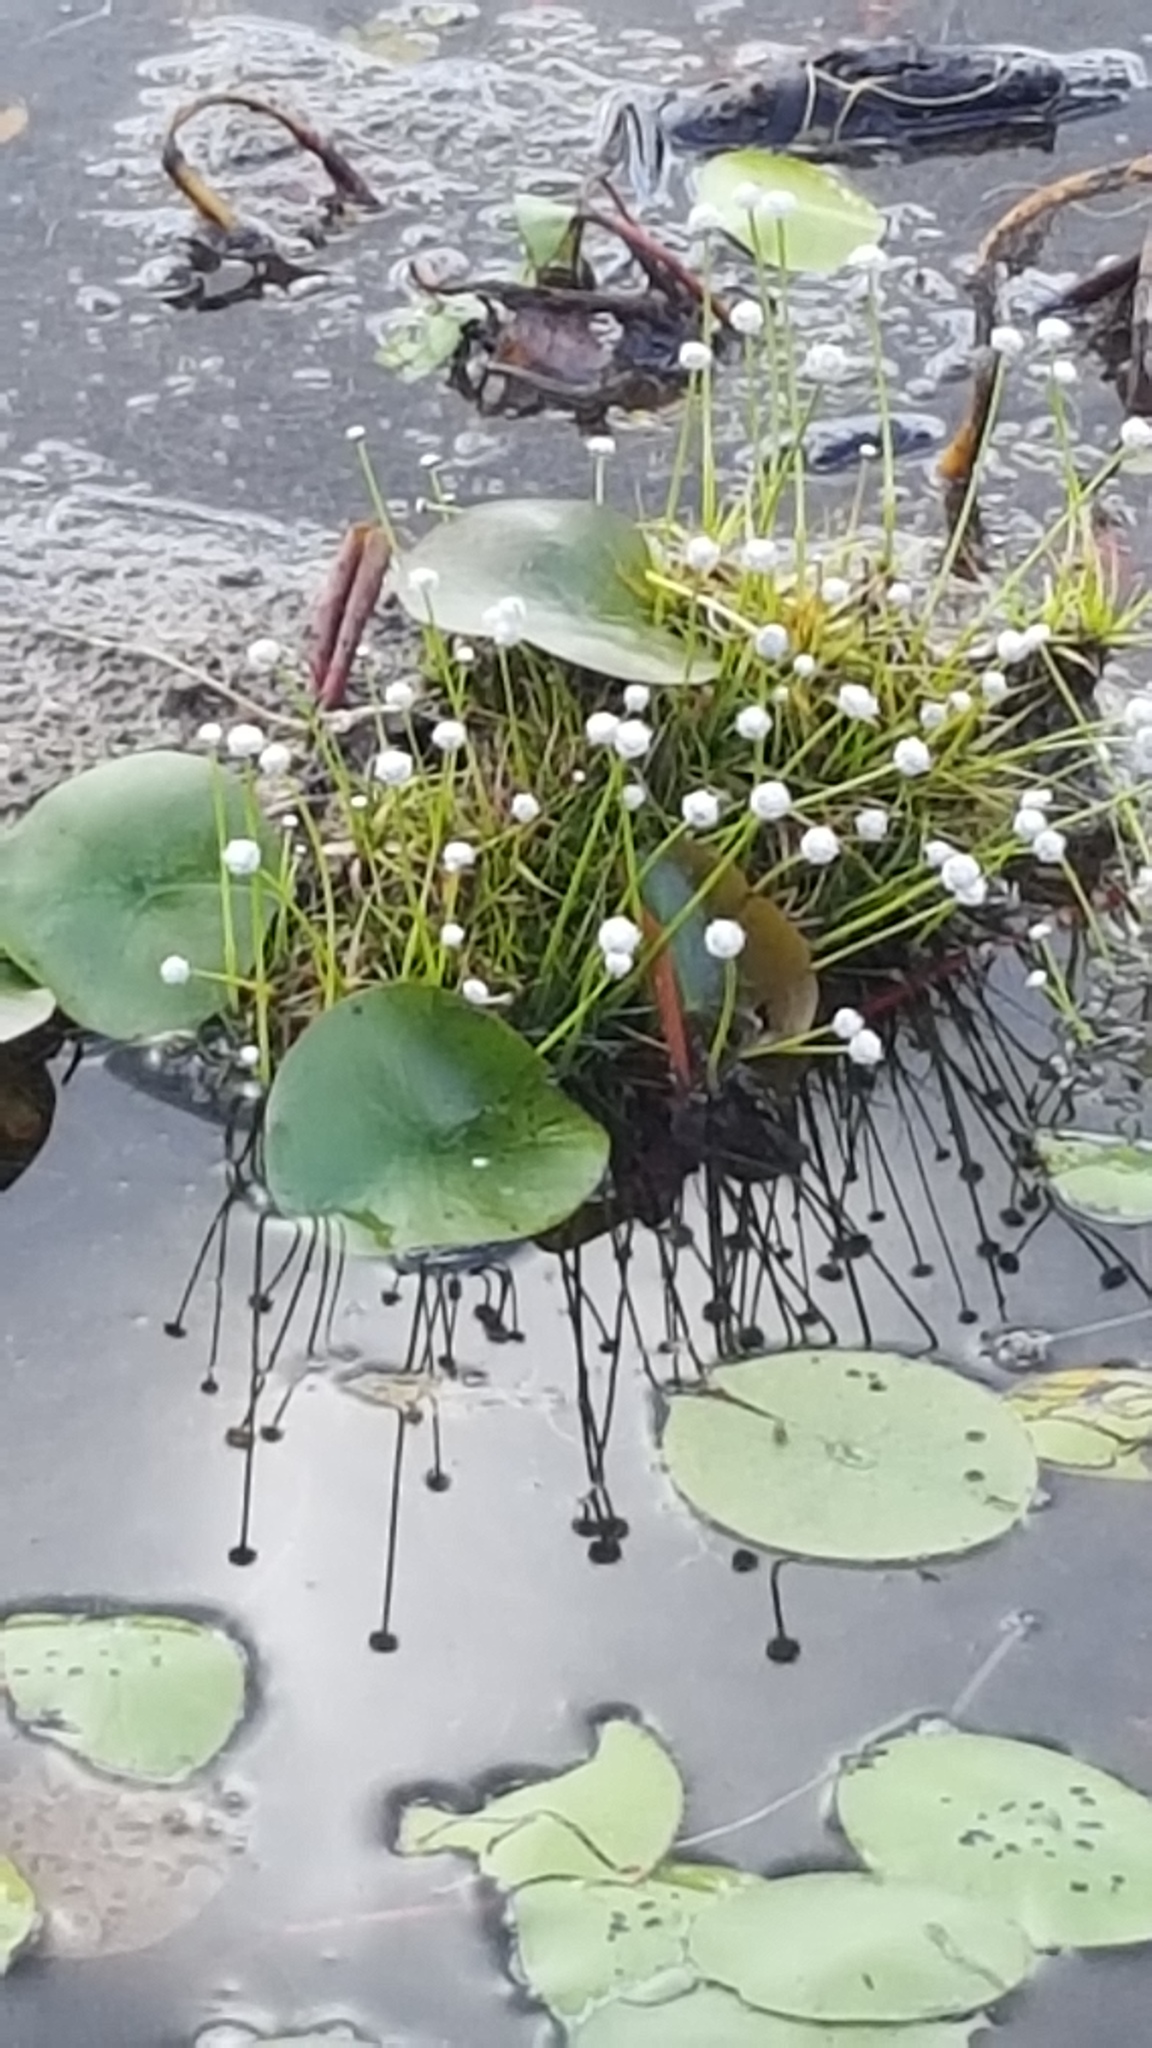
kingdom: Plantae
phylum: Tracheophyta
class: Liliopsida
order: Poales
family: Eriocaulaceae
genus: Eriocaulon
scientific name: Eriocaulon aquaticum
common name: Pipewort
